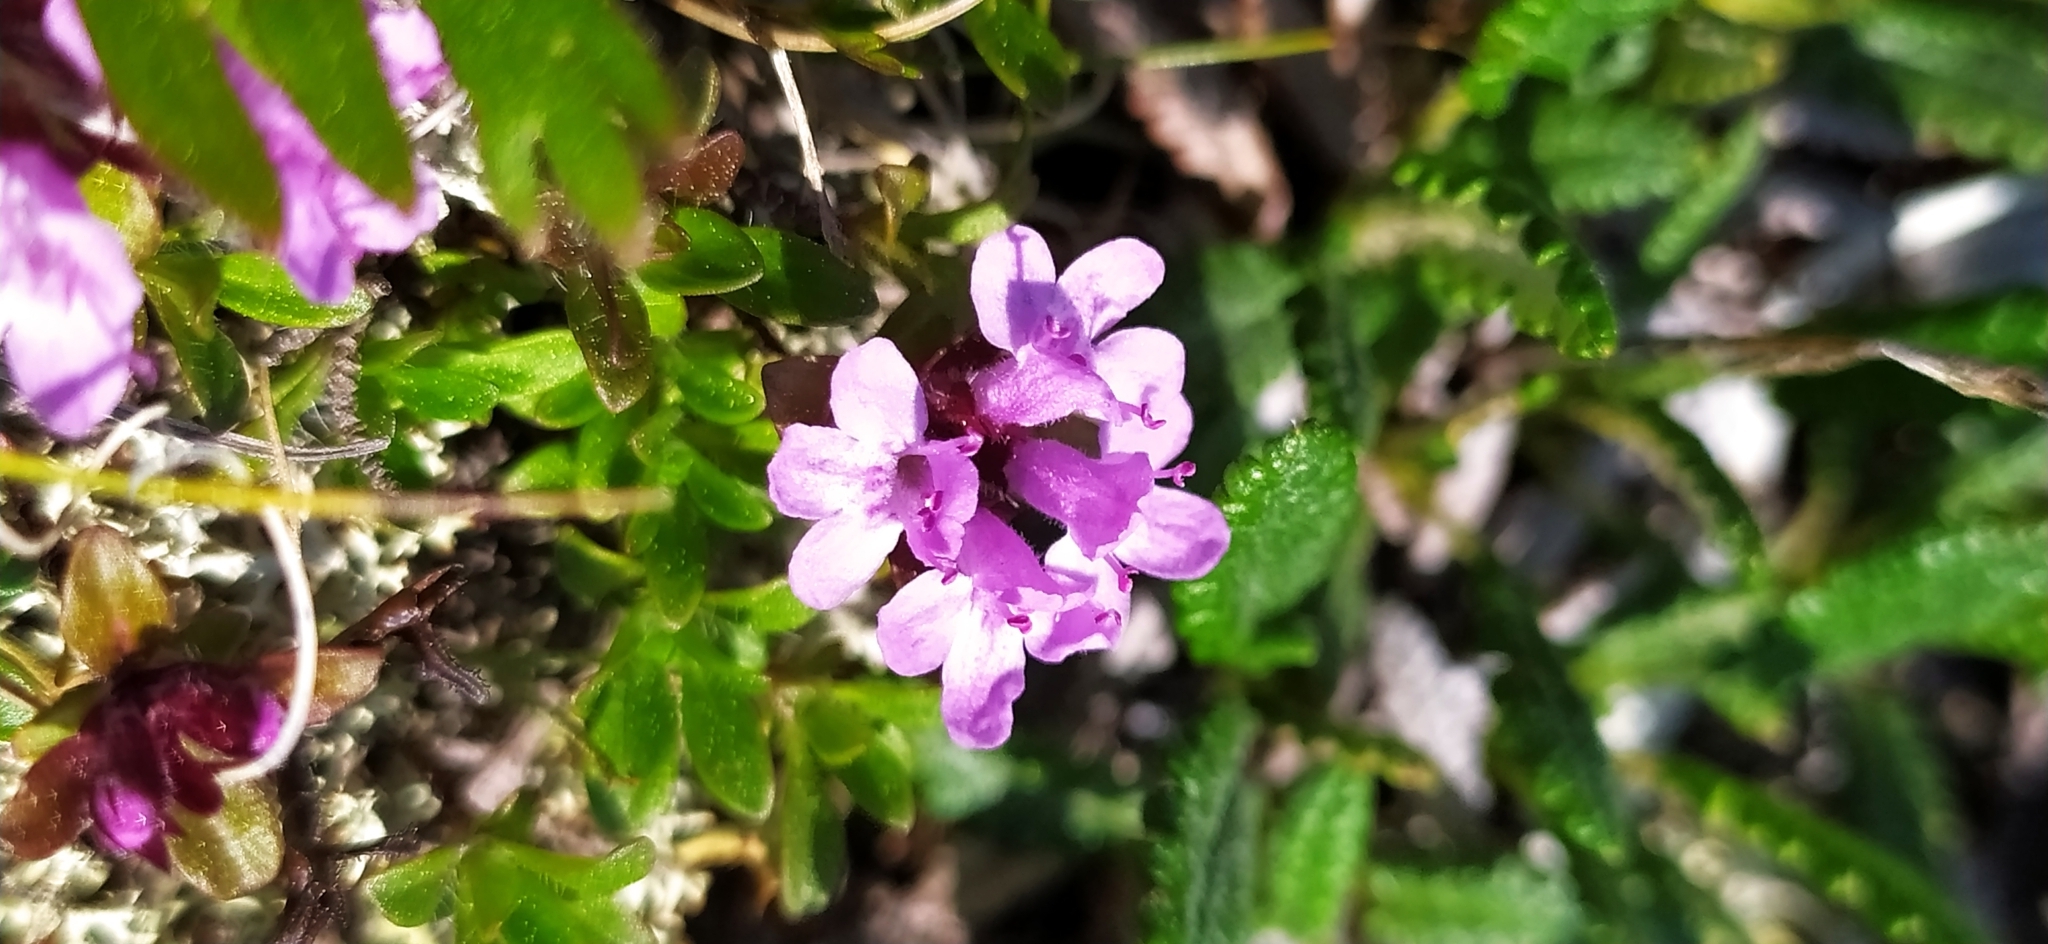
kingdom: Plantae
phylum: Tracheophyta
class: Magnoliopsida
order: Lamiales
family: Lamiaceae
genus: Thymus
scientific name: Thymus glabricaulis
